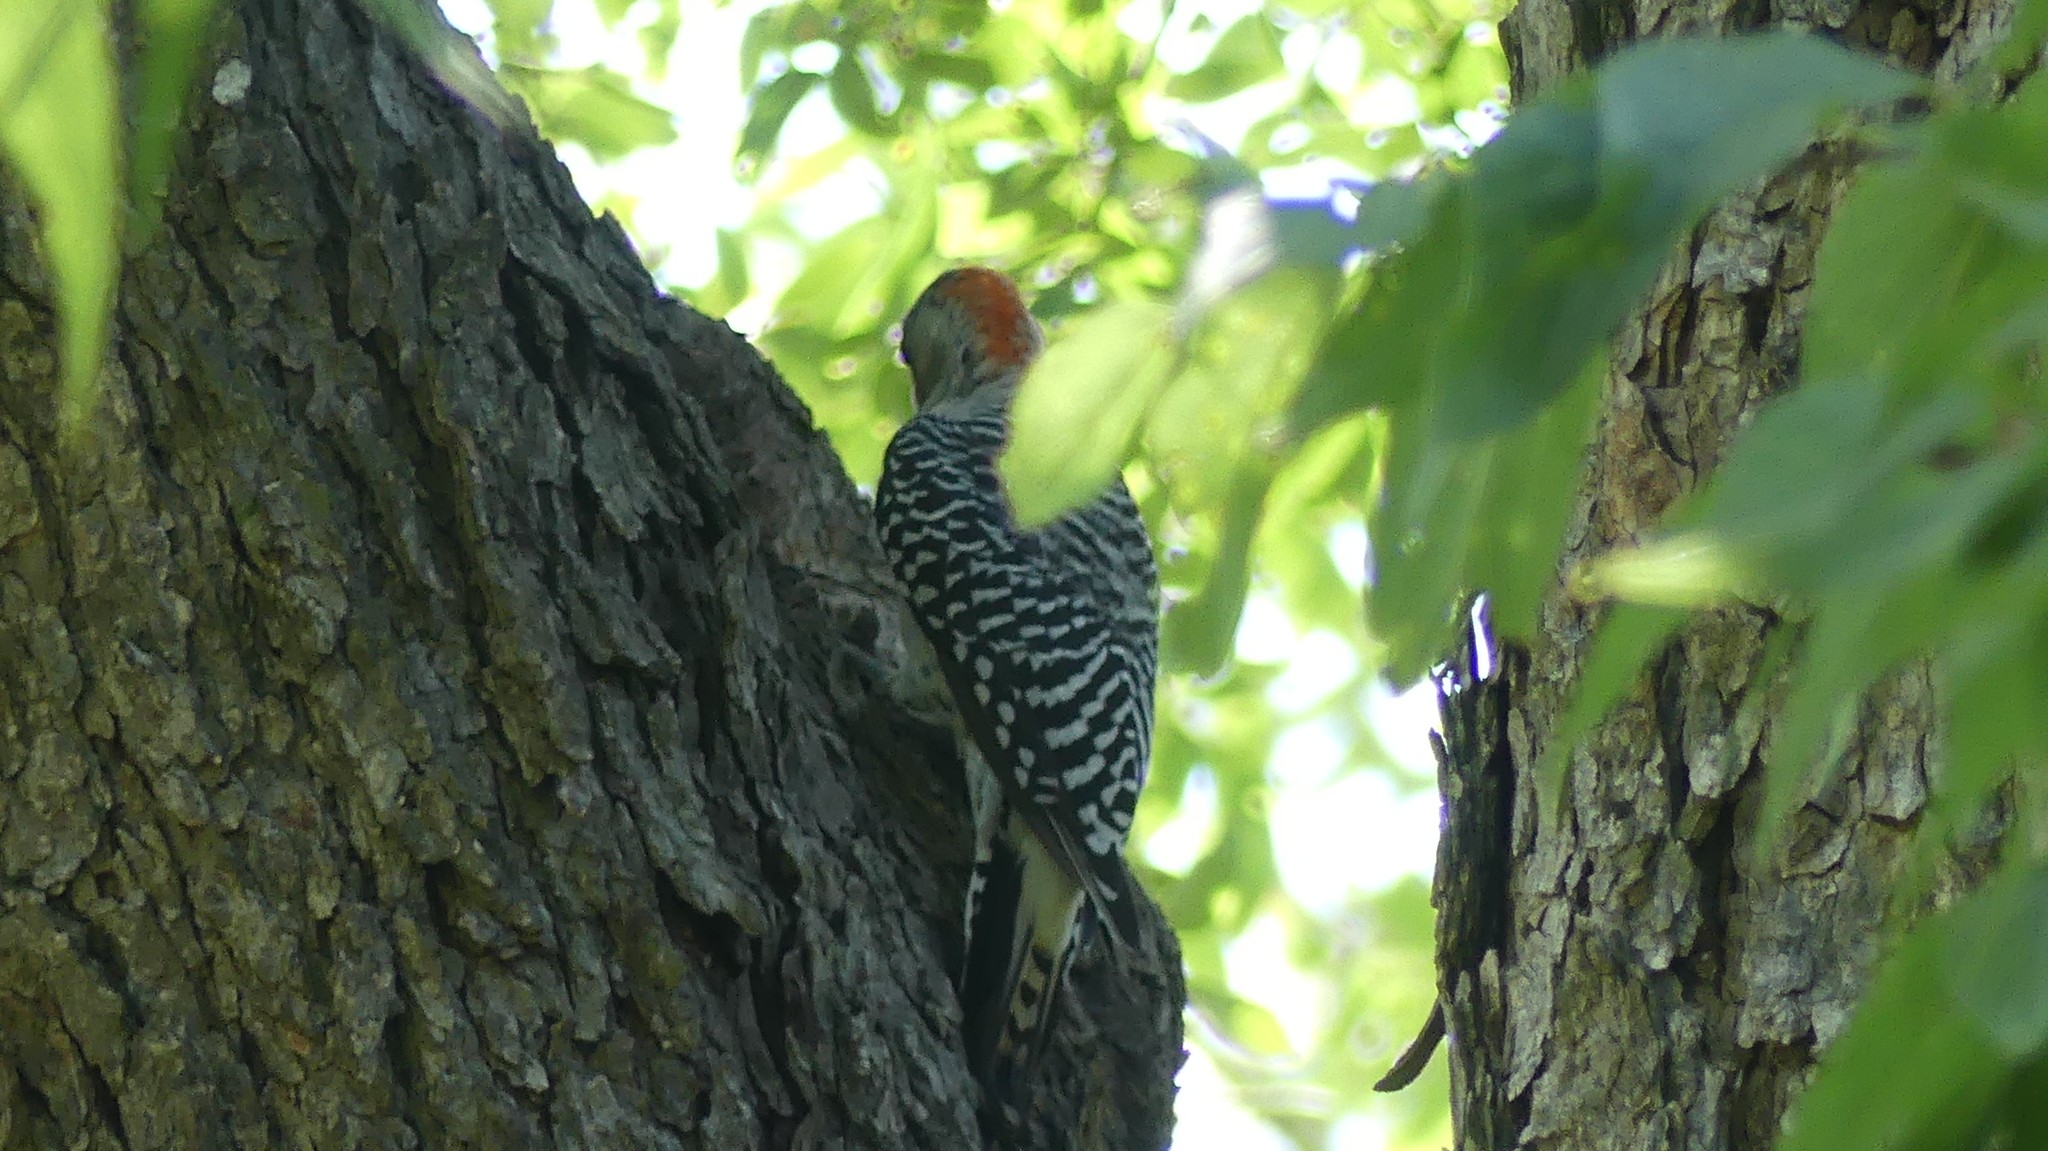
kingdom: Animalia
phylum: Chordata
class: Aves
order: Piciformes
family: Picidae
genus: Melanerpes
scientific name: Melanerpes carolinus
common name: Red-bellied woodpecker
